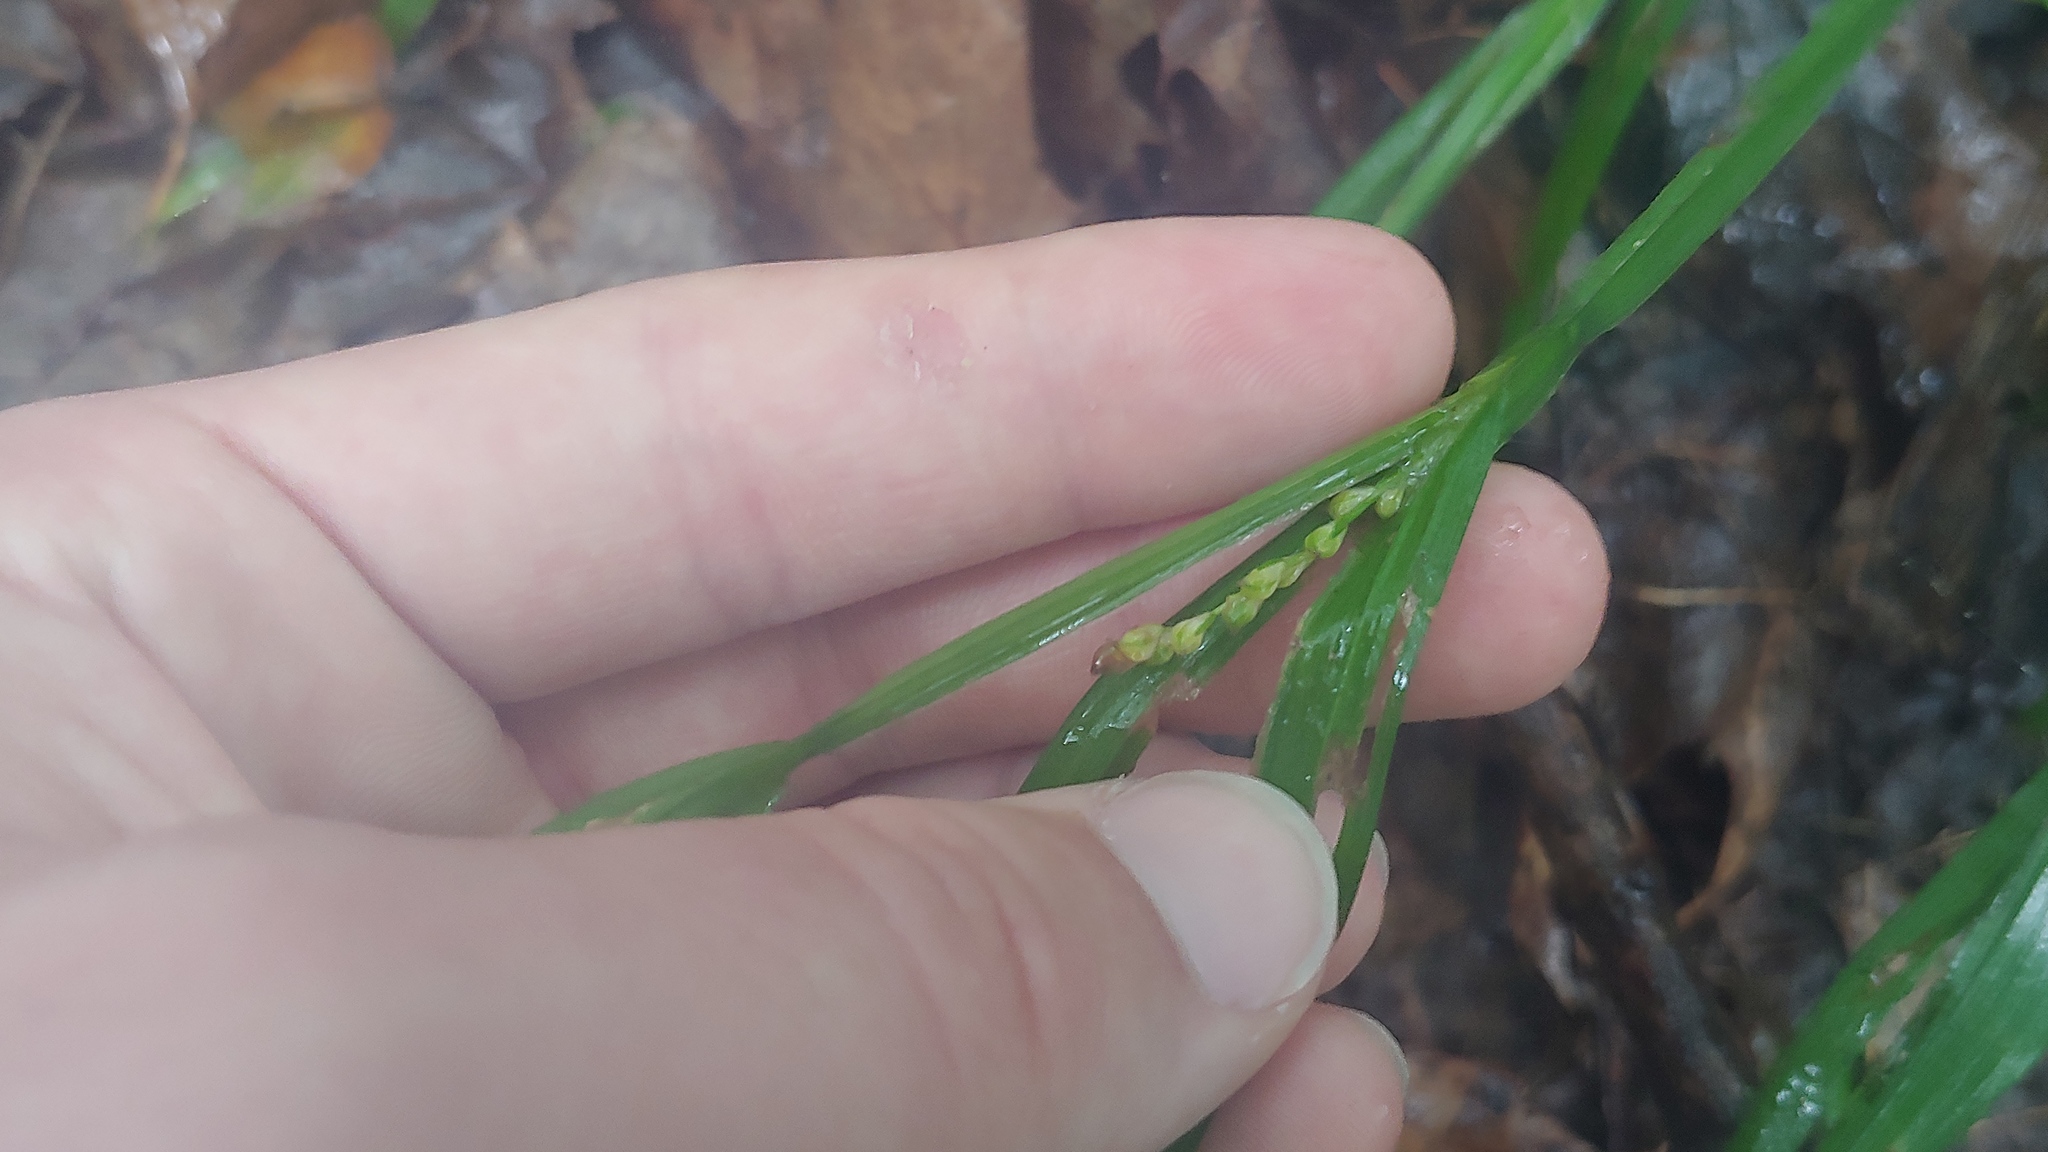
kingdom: Plantae
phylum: Tracheophyta
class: Liliopsida
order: Poales
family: Cyperaceae
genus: Carex
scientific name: Carex albursina
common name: Blunt-scale wood sedge
